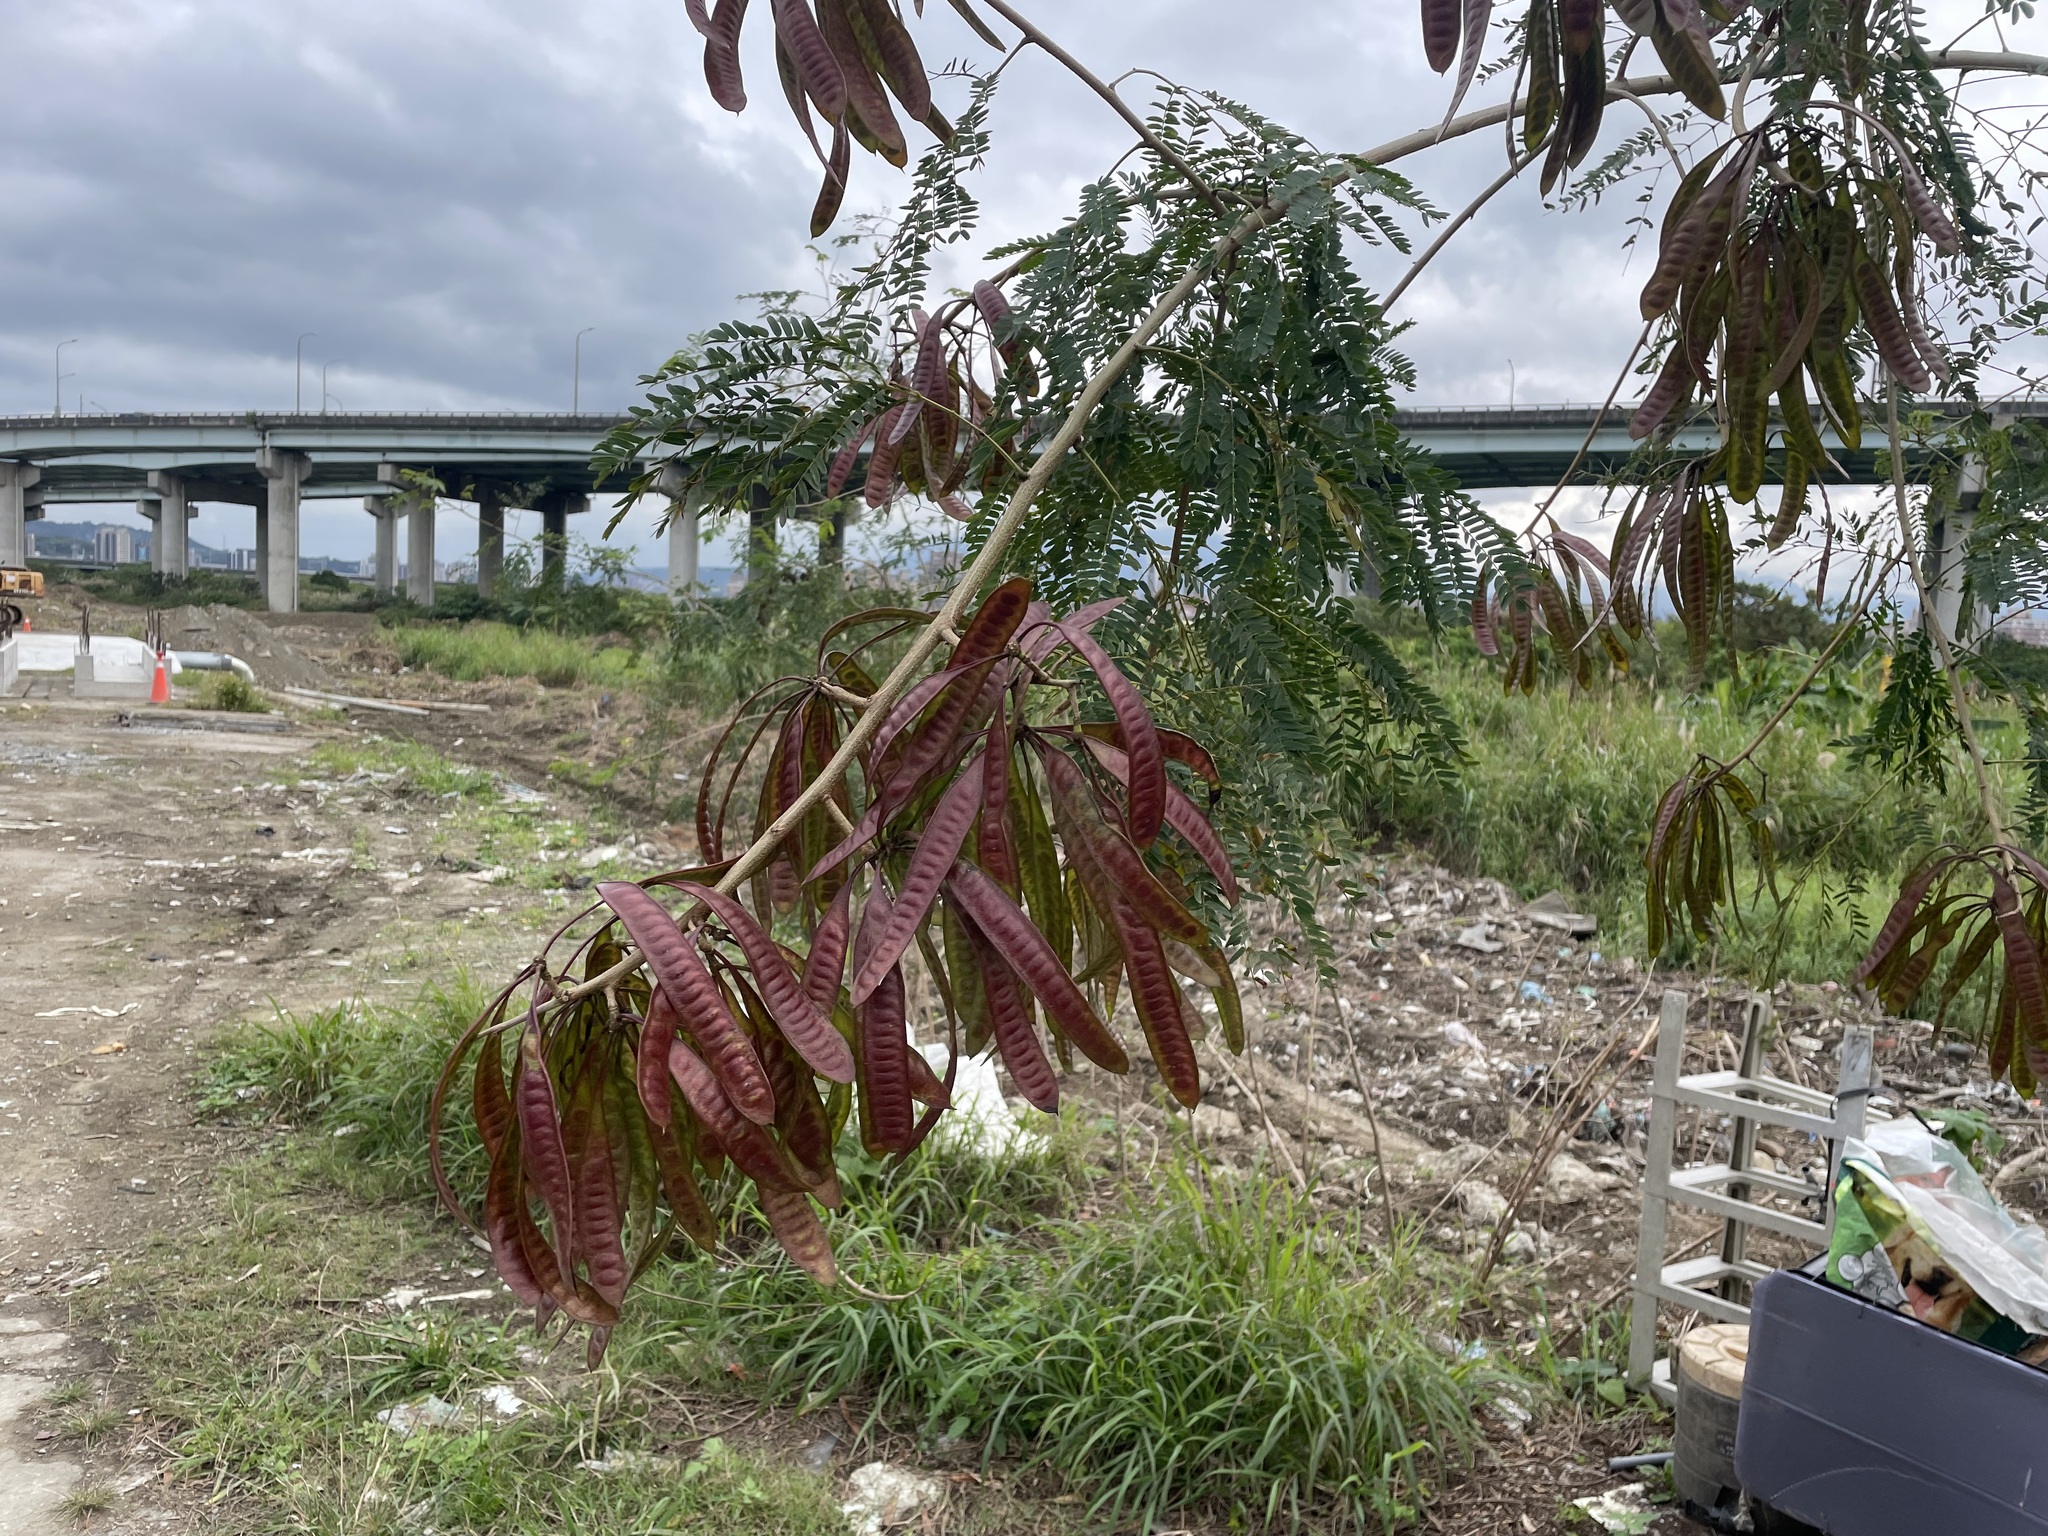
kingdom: Plantae
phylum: Tracheophyta
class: Magnoliopsida
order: Fabales
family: Fabaceae
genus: Leucaena
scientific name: Leucaena leucocephala
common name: White leadtree
